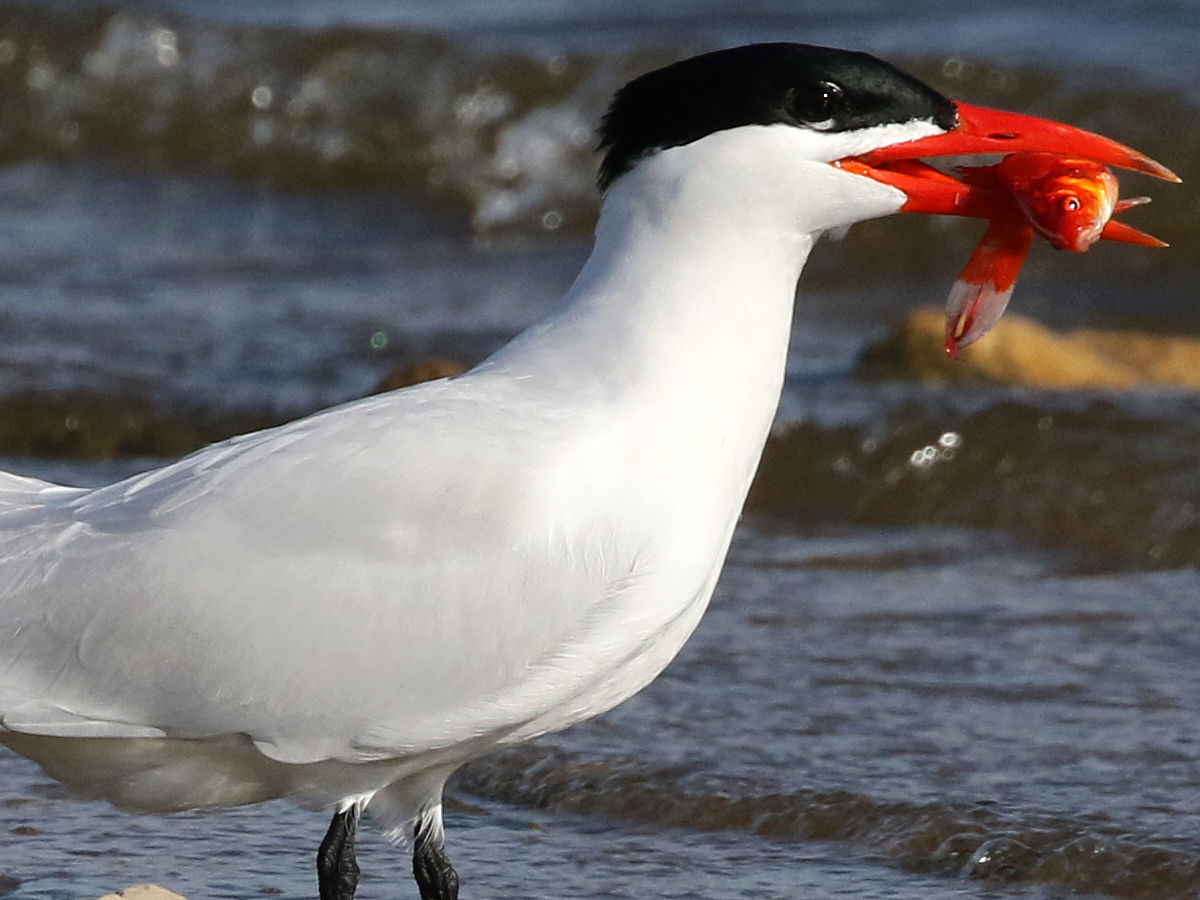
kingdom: Animalia
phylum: Chordata
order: Cypriniformes
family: Cyprinidae
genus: Carassius
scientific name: Carassius auratus
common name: Goldfish
